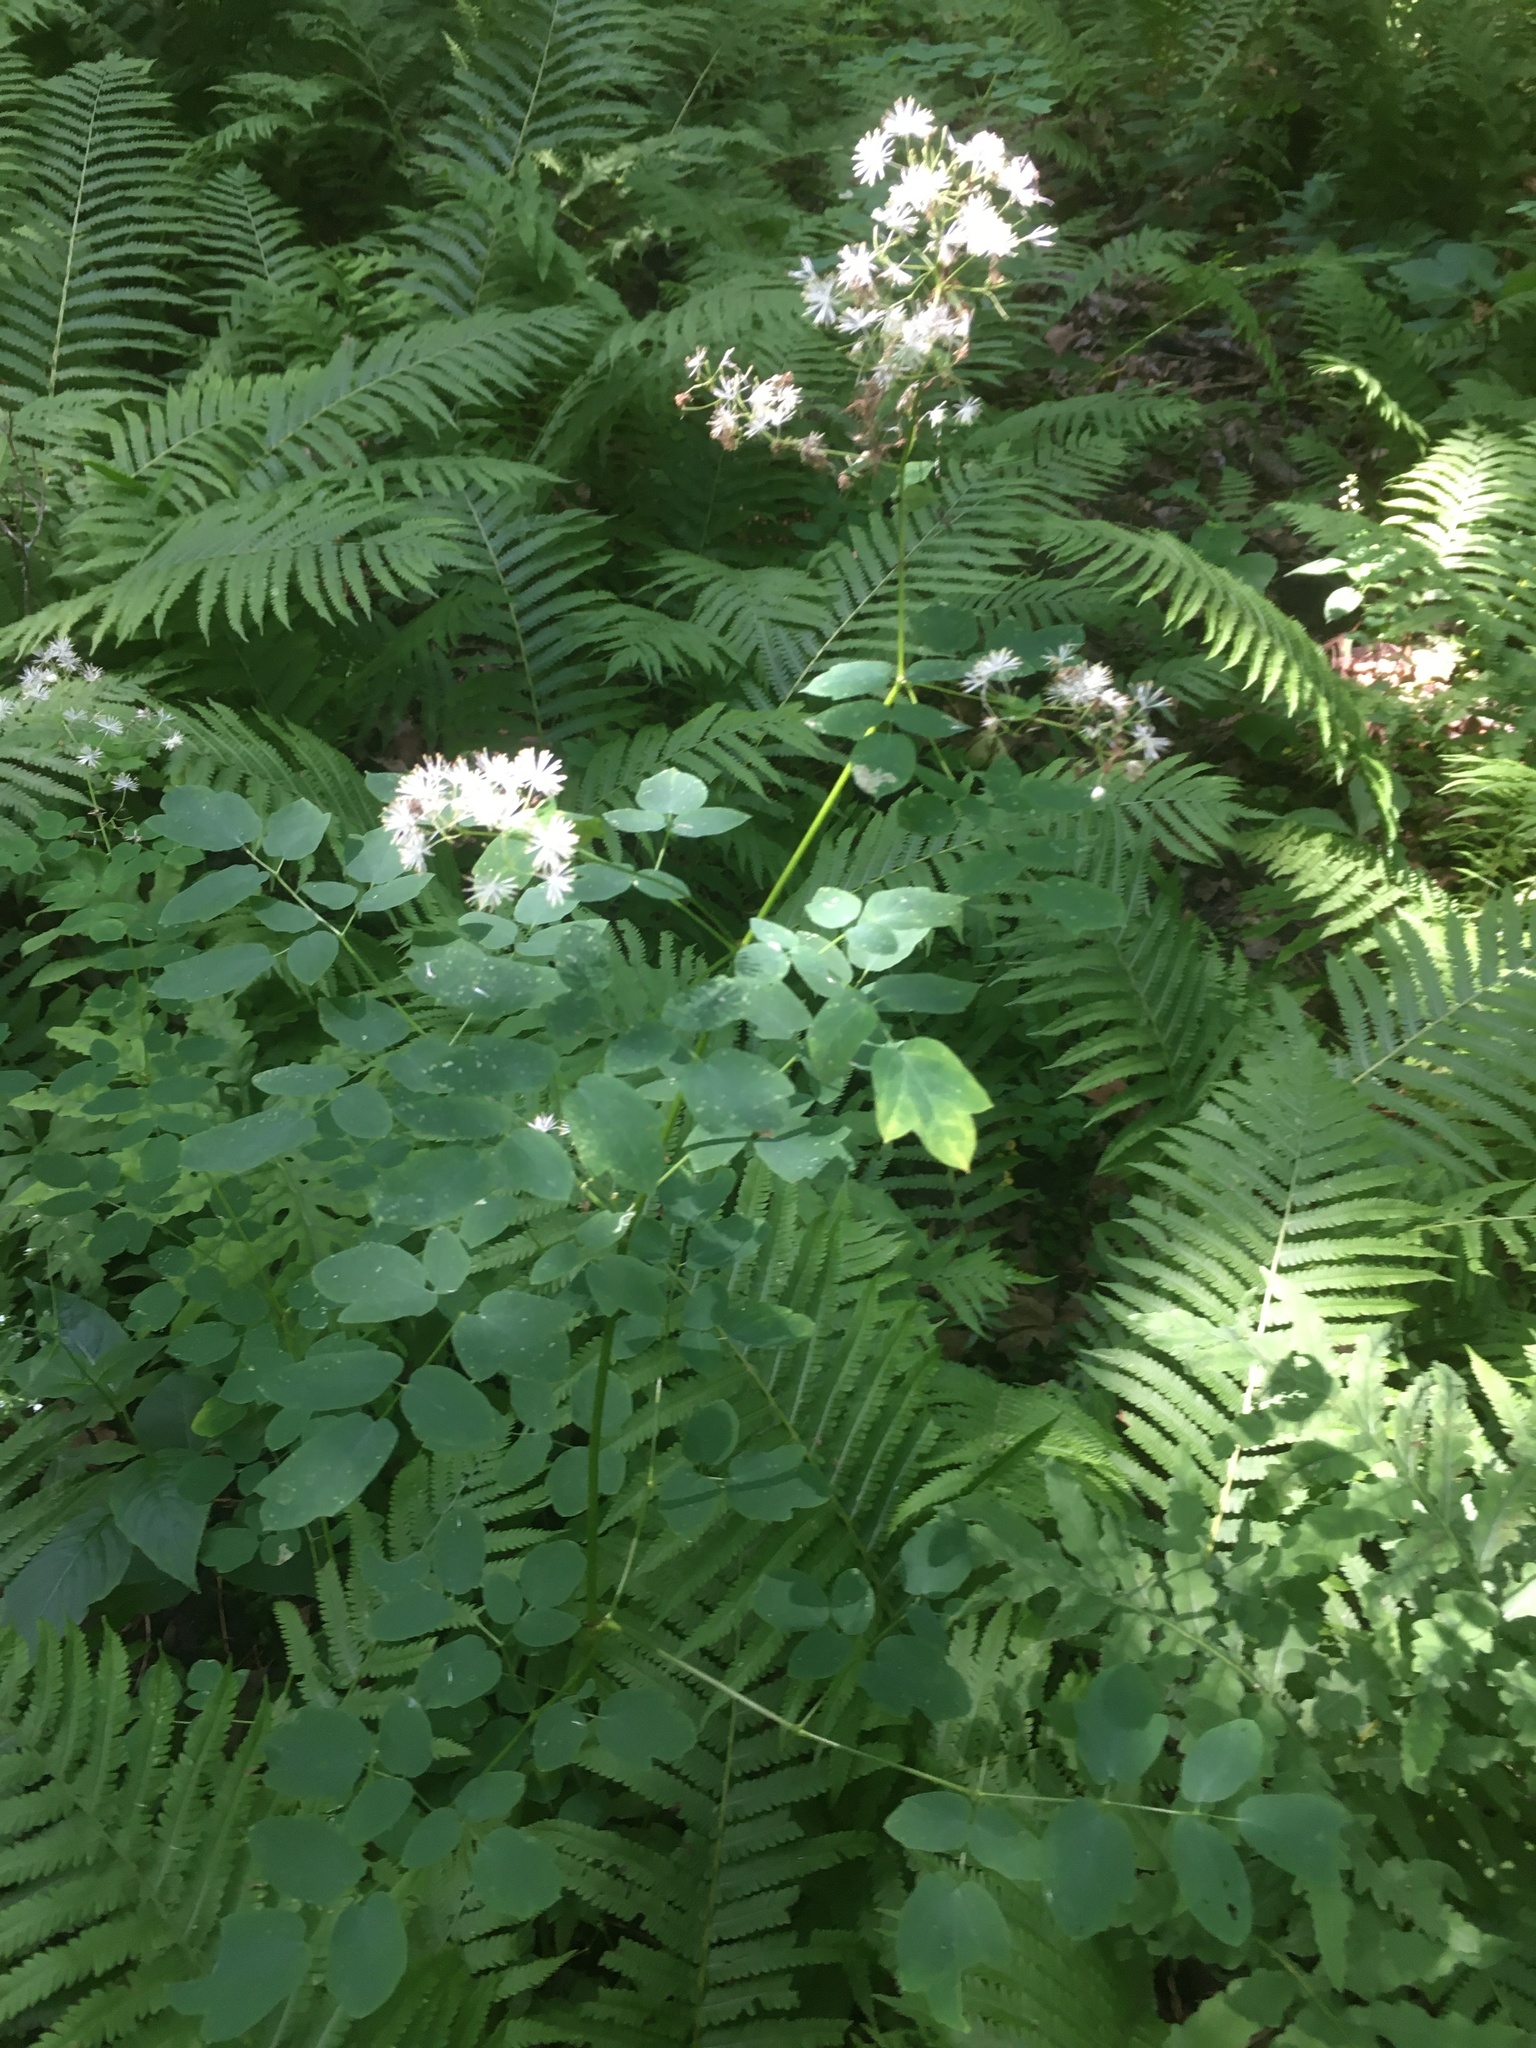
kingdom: Plantae
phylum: Tracheophyta
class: Magnoliopsida
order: Ranunculales
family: Ranunculaceae
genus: Thalictrum
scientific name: Thalictrum pubescens
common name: King-of-the-meadow
